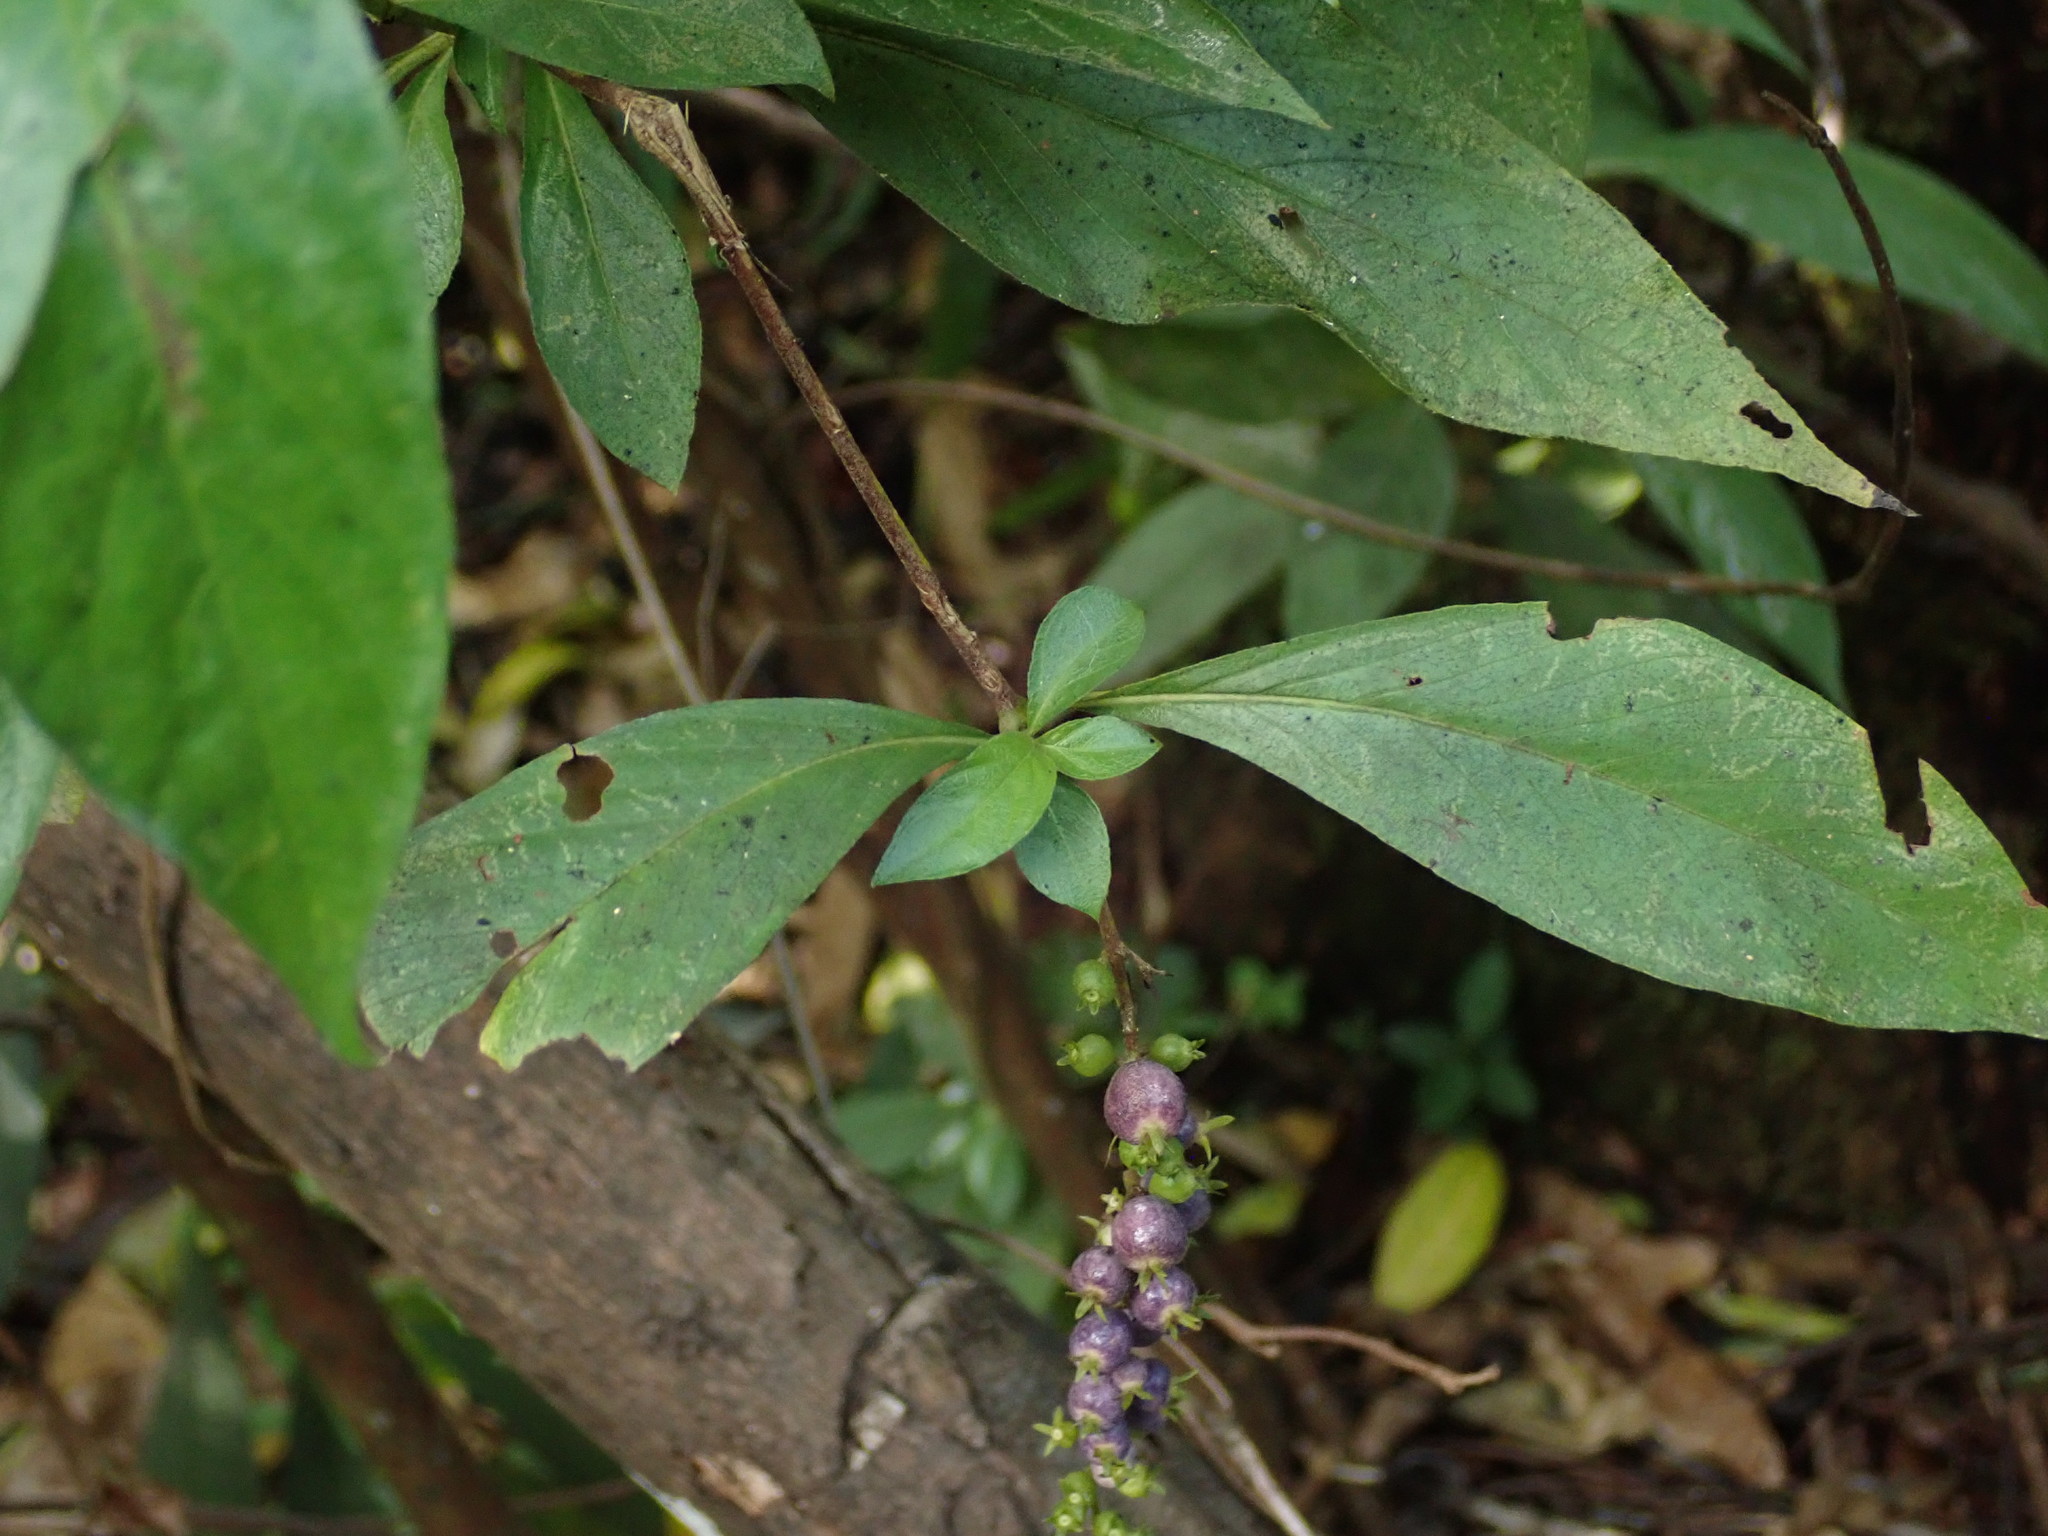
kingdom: Plantae
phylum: Tracheophyta
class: Magnoliopsida
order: Gentianales
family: Rubiaceae
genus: Gonzalagunia
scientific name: Gonzalagunia hirsuta
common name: Mata de mariposa
